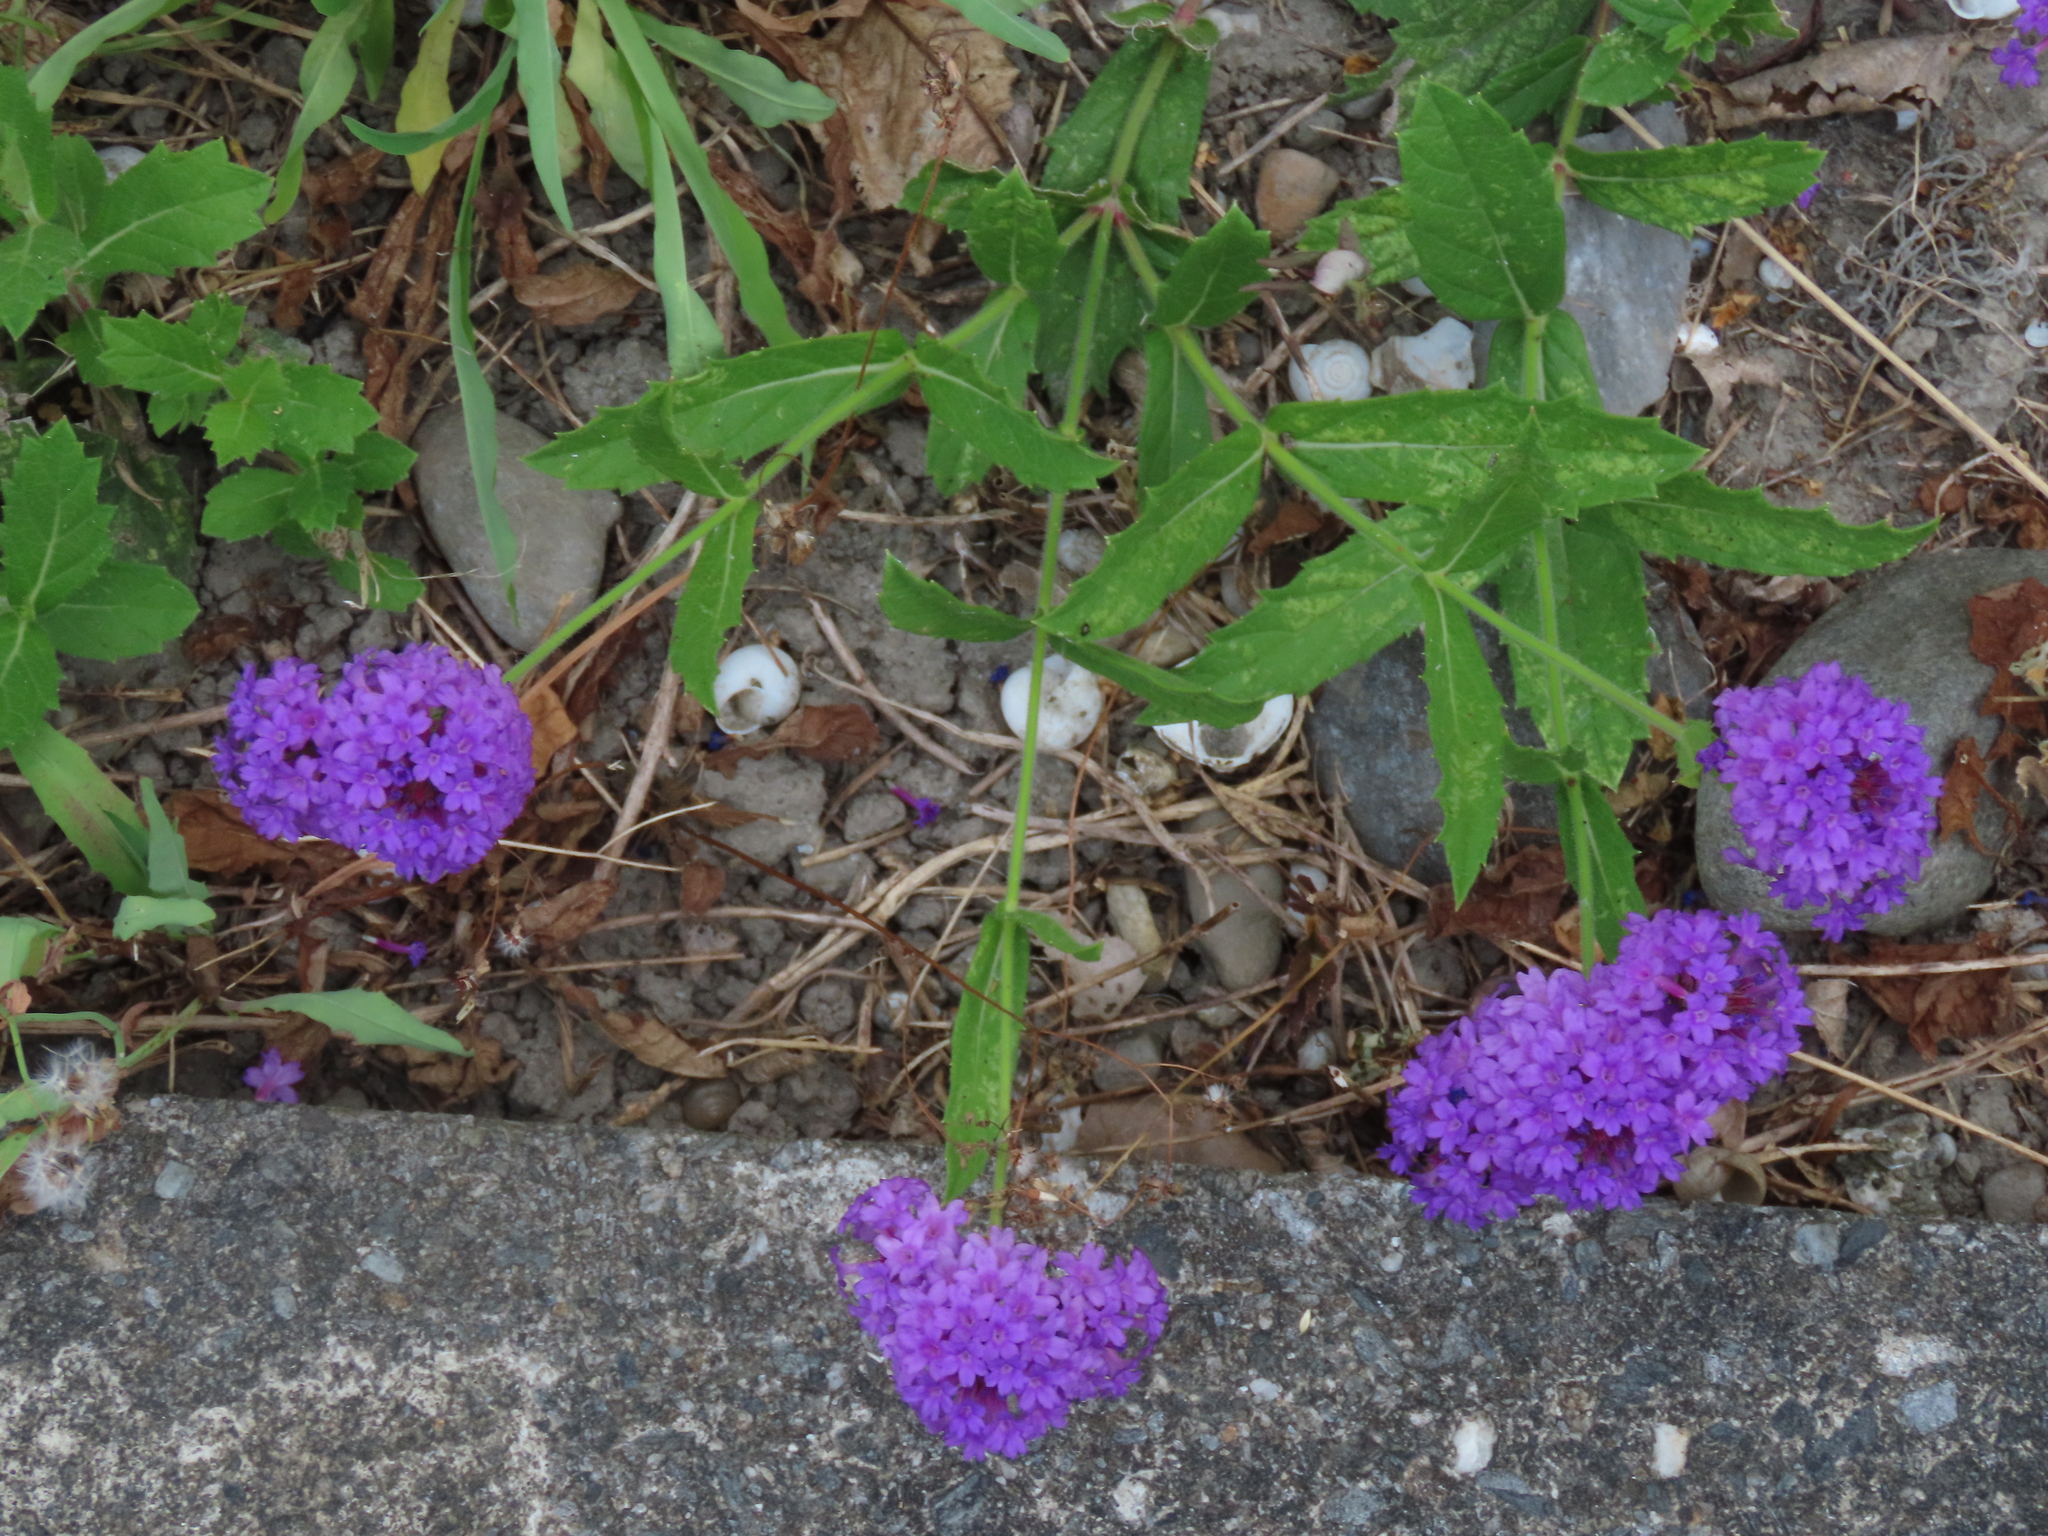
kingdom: Plantae
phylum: Tracheophyta
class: Magnoliopsida
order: Lamiales
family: Verbenaceae
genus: Verbena
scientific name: Verbena rigida
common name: Slender vervain
